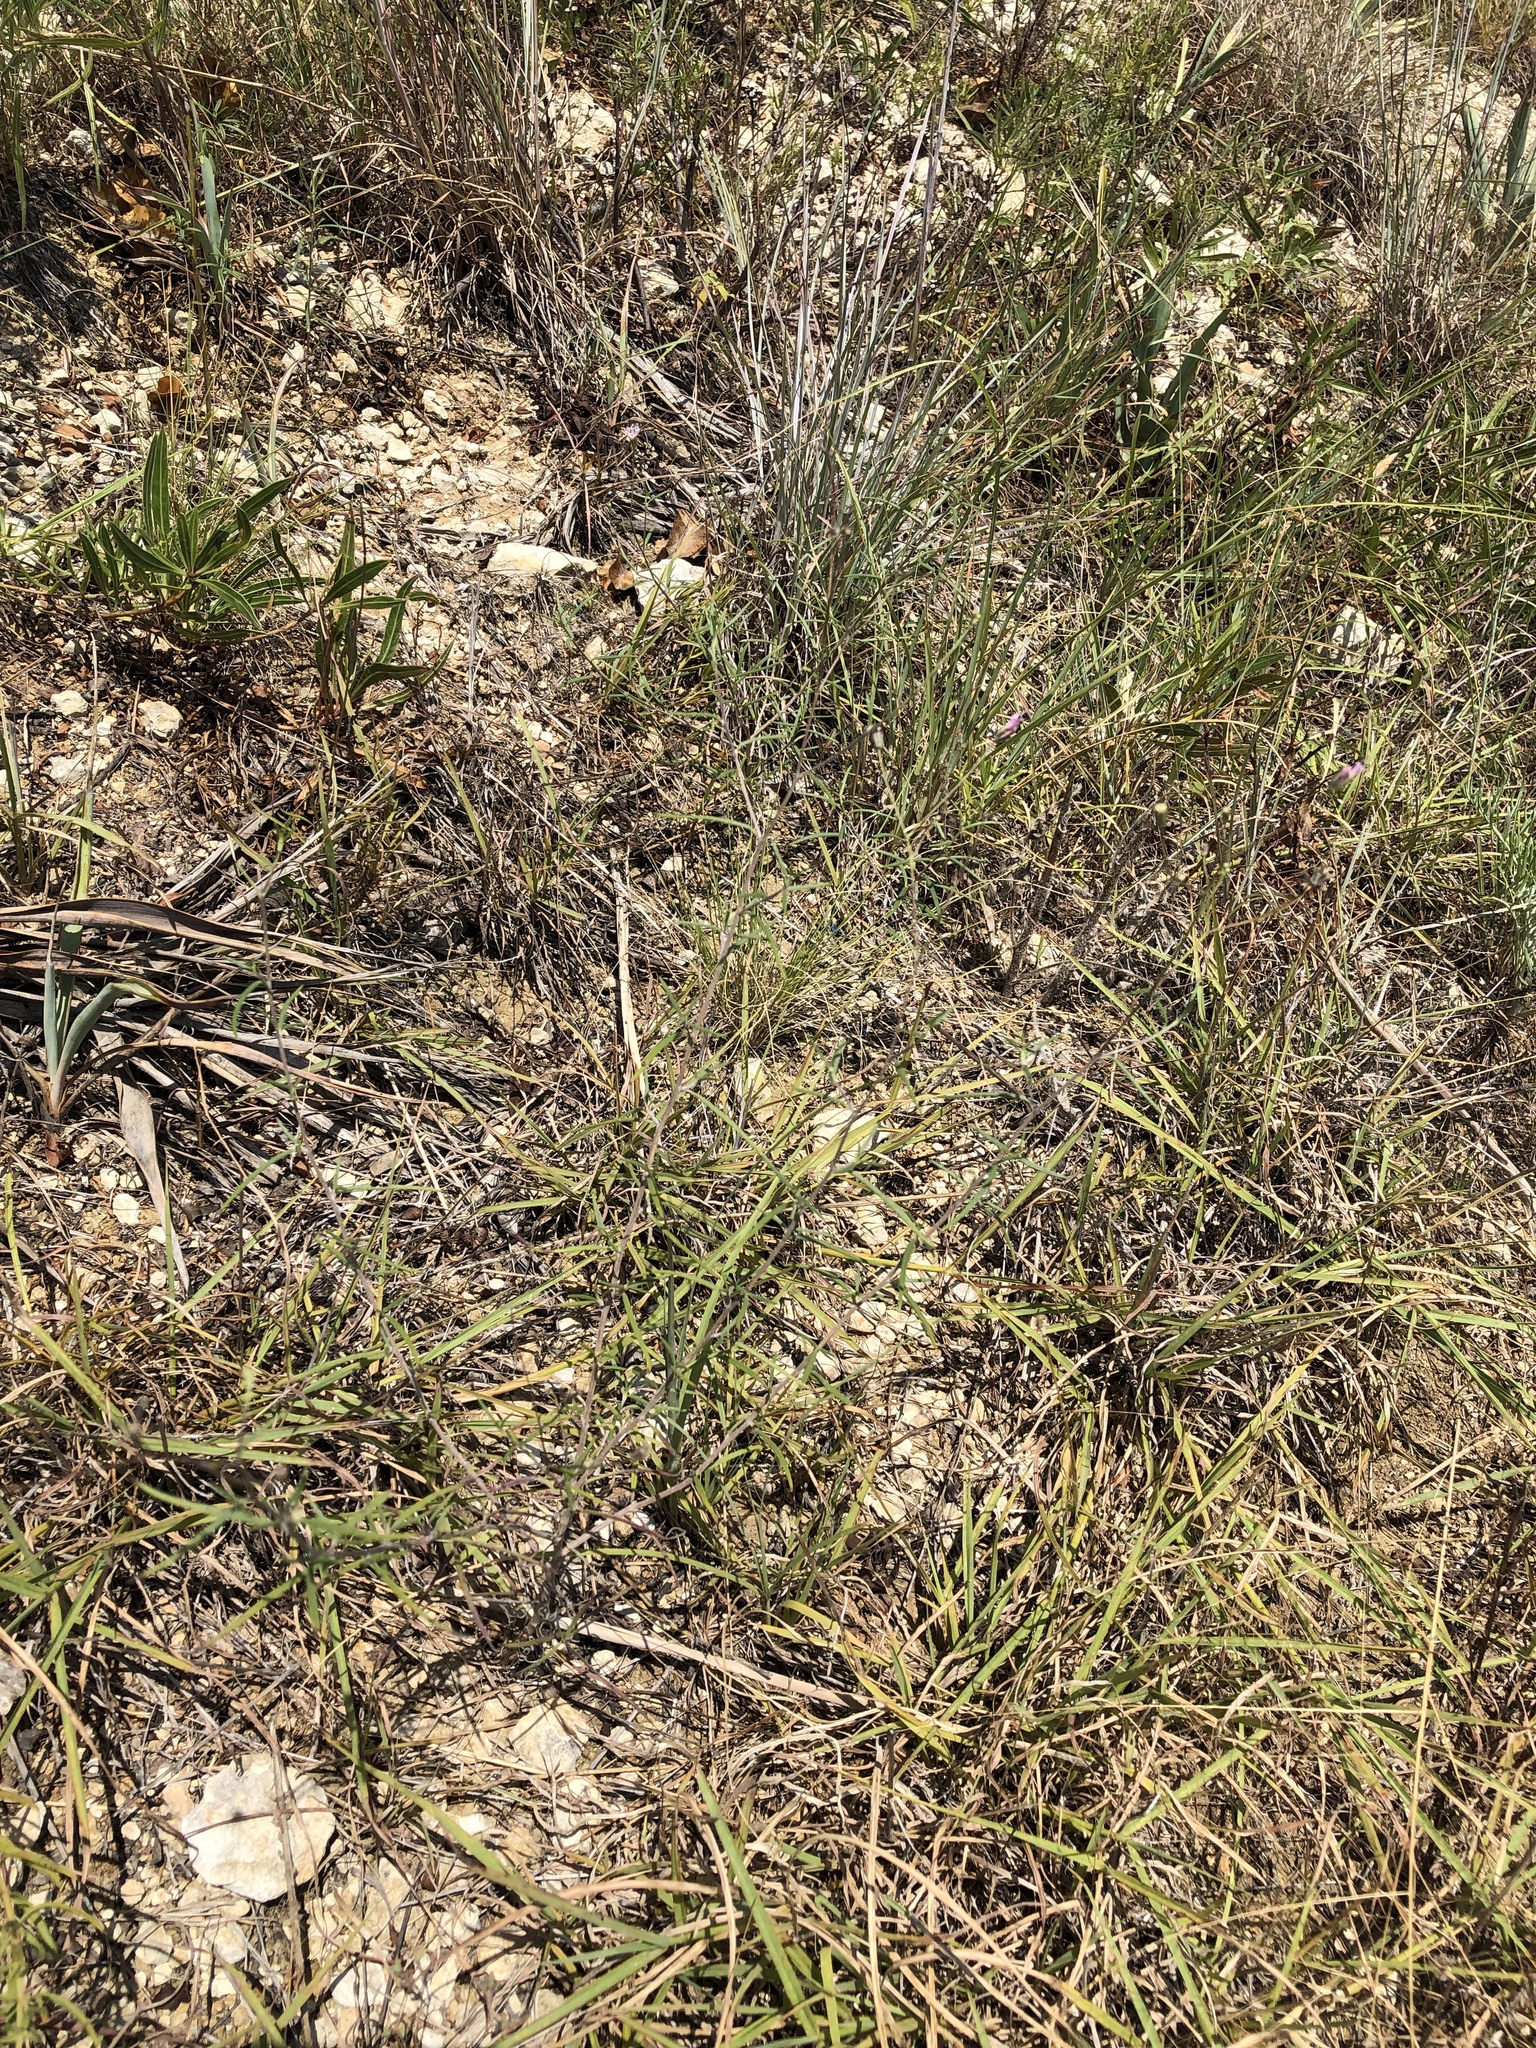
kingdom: Plantae
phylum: Tracheophyta
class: Magnoliopsida
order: Asterales
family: Asteraceae
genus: Palafoxia
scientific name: Palafoxia callosa
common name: Small palafox
